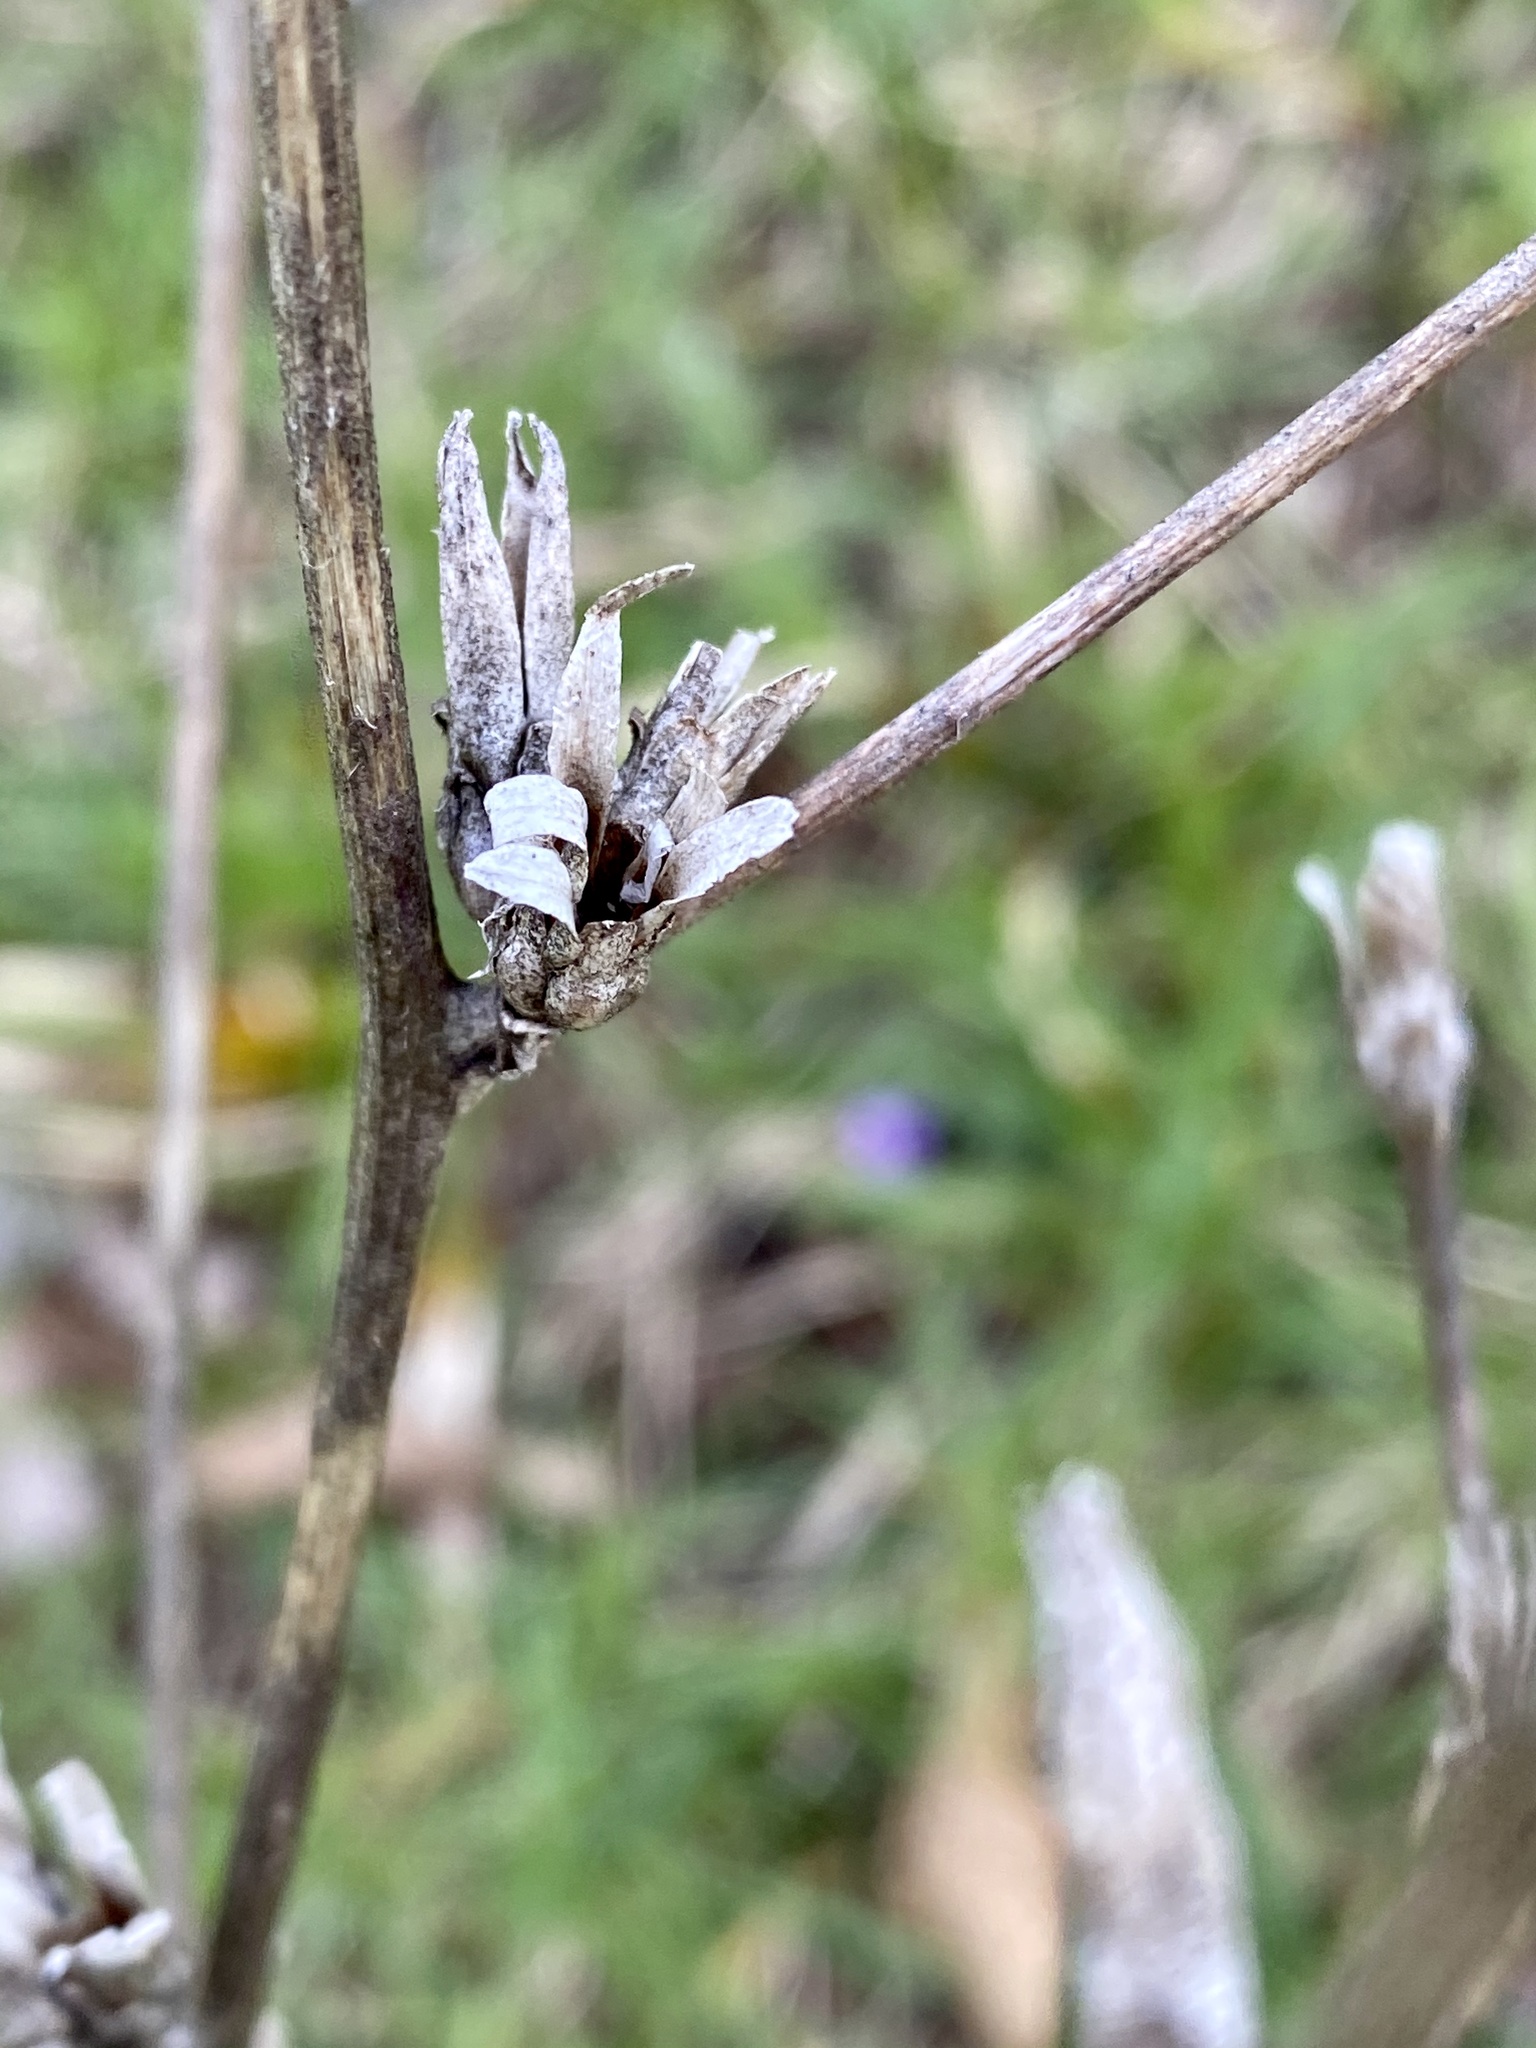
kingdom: Plantae
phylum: Tracheophyta
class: Magnoliopsida
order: Asterales
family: Asteraceae
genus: Cichorium
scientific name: Cichorium intybus
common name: Chicory
